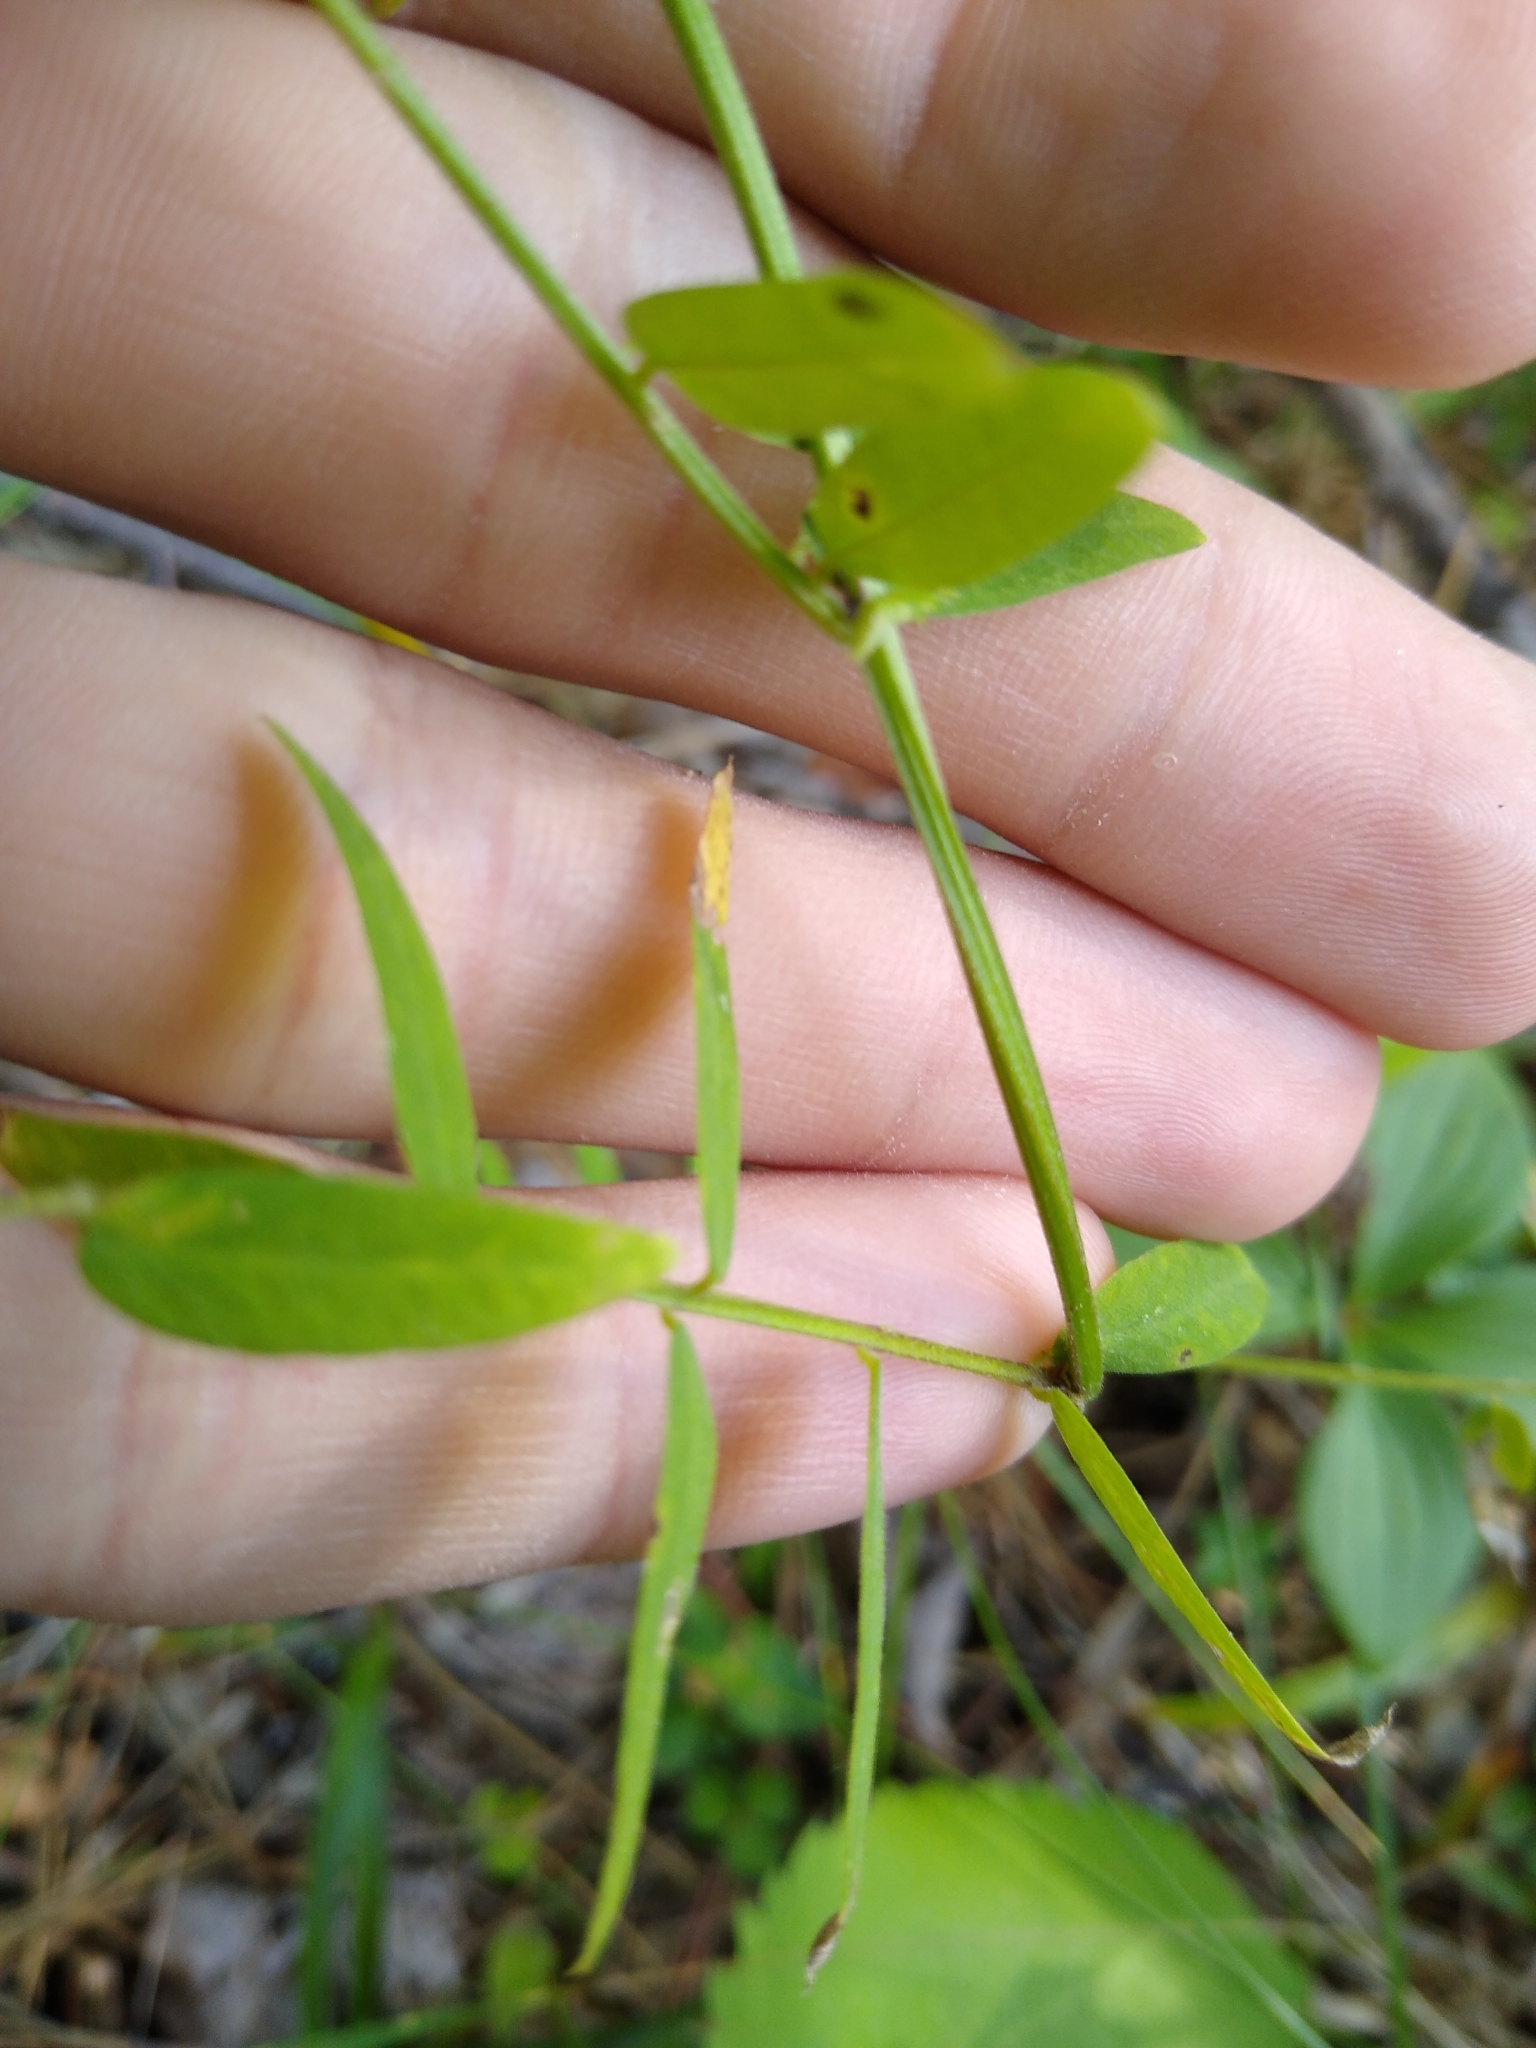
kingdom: Plantae
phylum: Tracheophyta
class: Magnoliopsida
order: Fabales
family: Fabaceae
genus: Vicia
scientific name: Vicia americana
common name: American vetch
